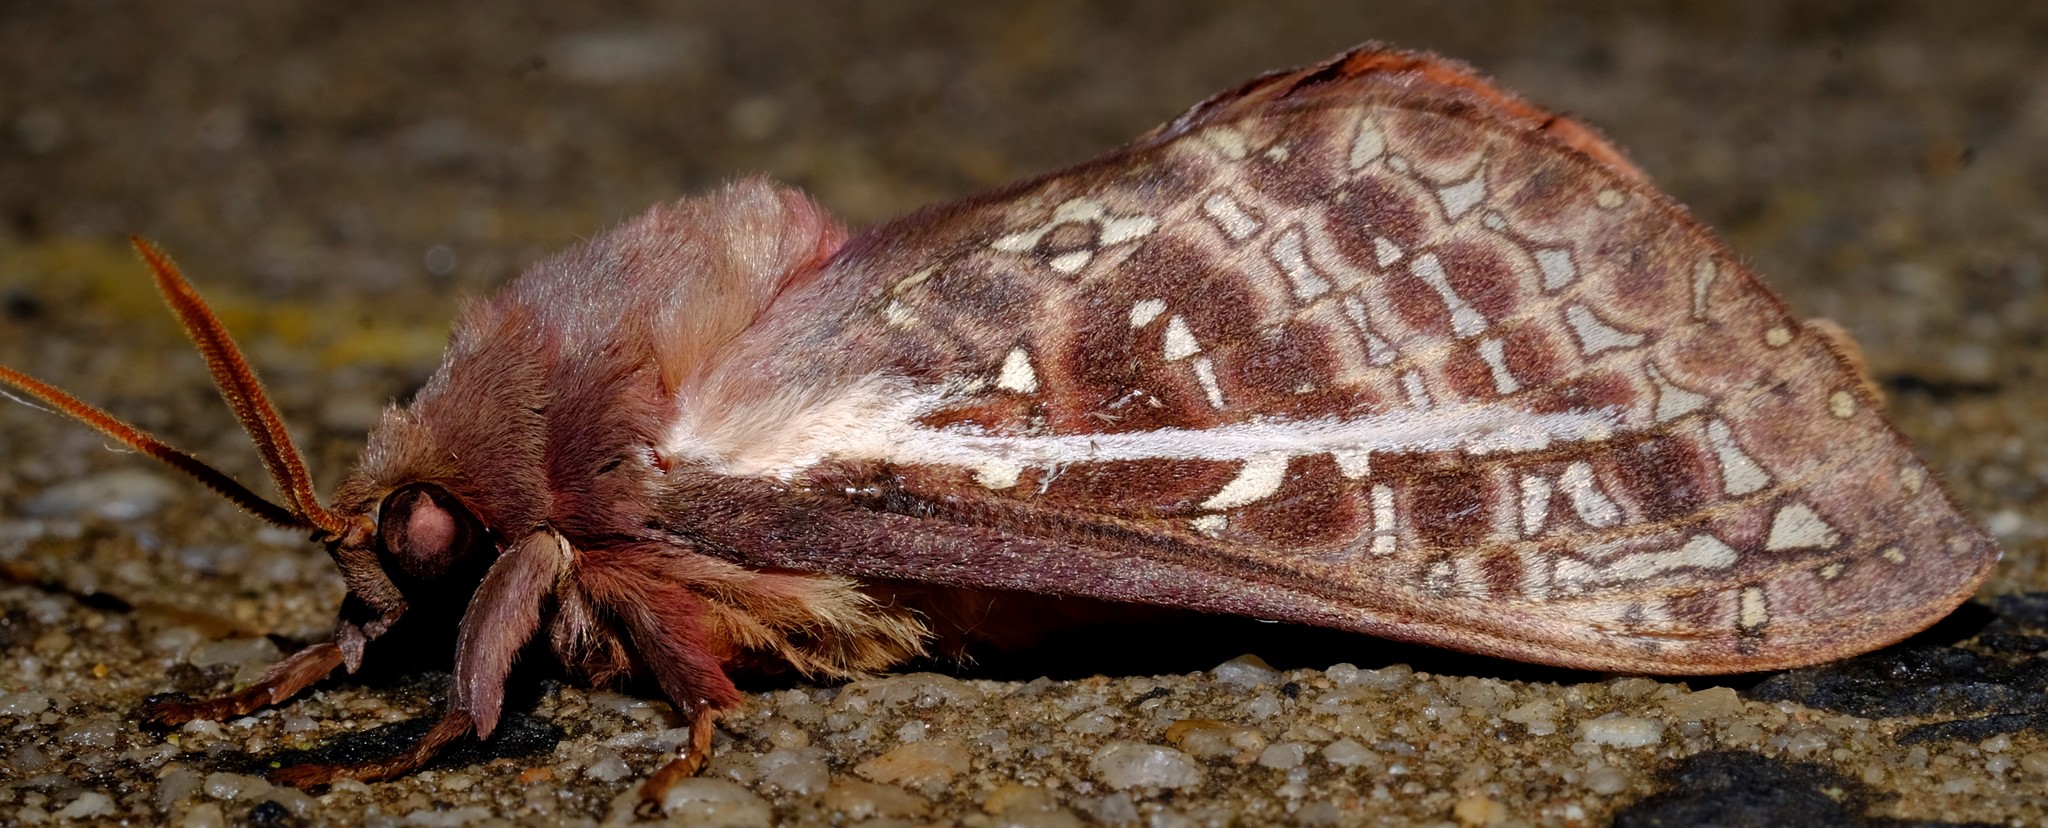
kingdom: Animalia
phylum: Arthropoda
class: Insecta
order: Lepidoptera
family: Hepialidae
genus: Oxycanus
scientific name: Oxycanus australis
